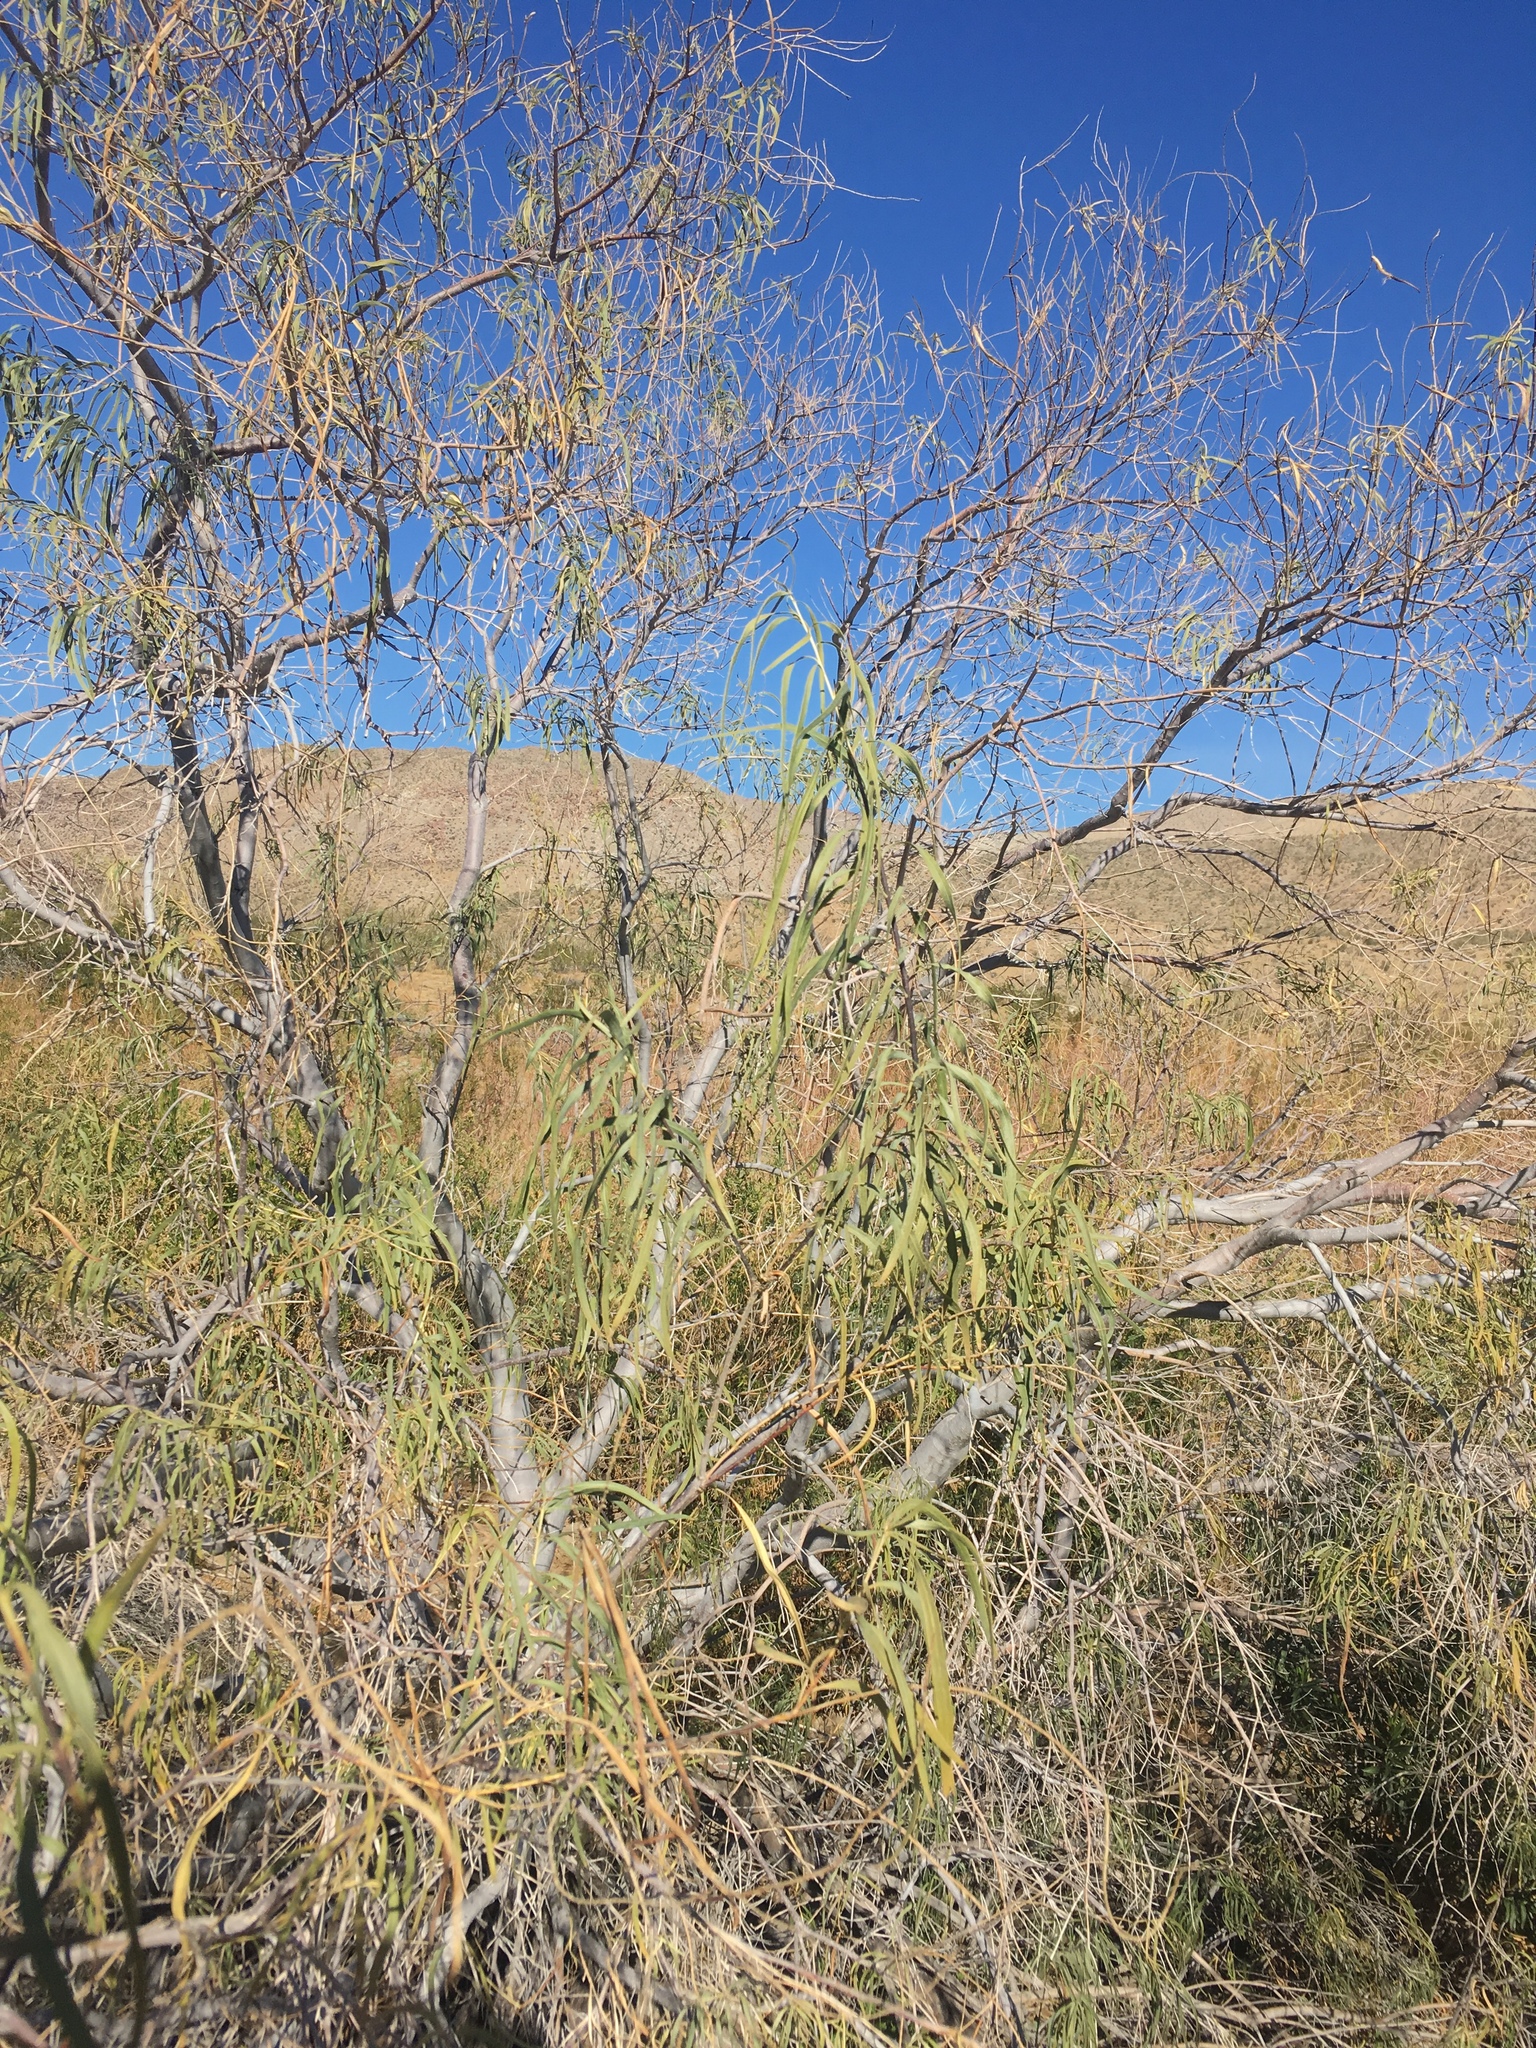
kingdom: Plantae
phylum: Tracheophyta
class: Magnoliopsida
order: Lamiales
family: Bignoniaceae
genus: Chilopsis
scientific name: Chilopsis linearis
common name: Desert-willow
